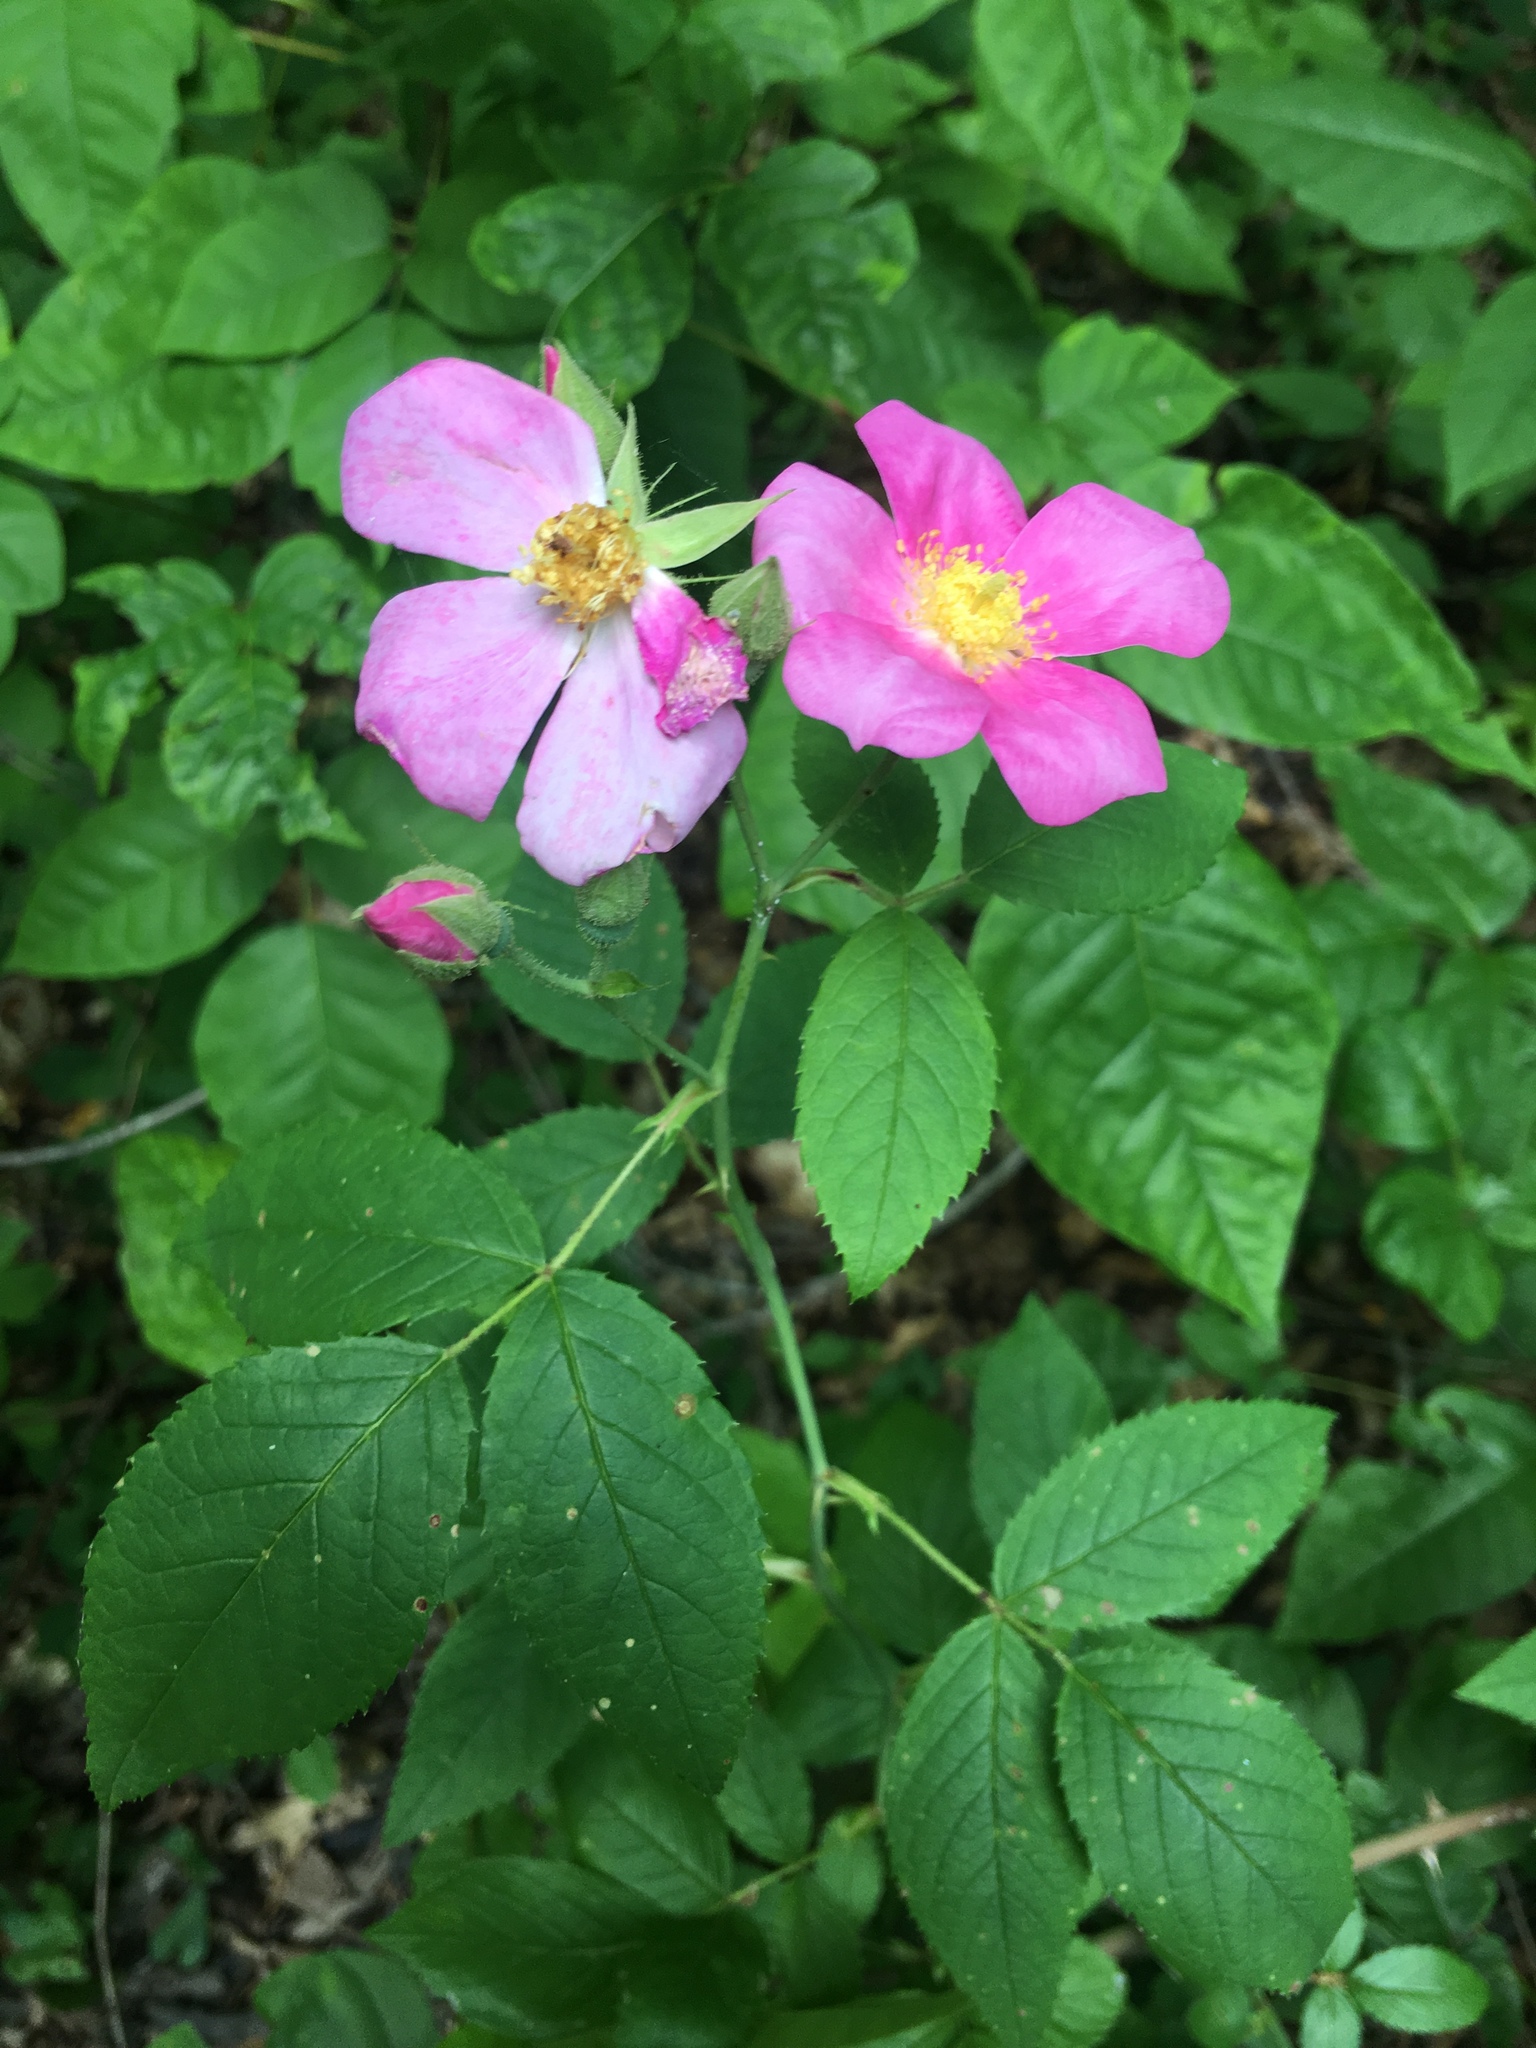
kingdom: Plantae
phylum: Tracheophyta
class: Magnoliopsida
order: Rosales
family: Rosaceae
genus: Rosa
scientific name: Rosa setigera
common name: Prairie rose
